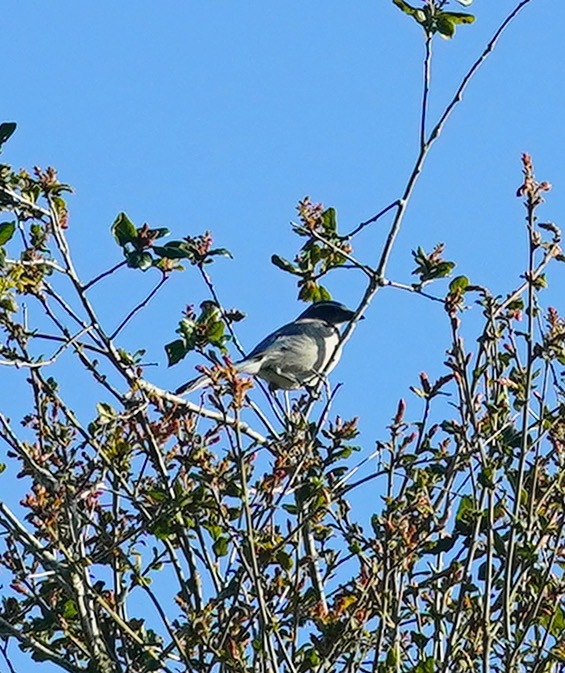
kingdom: Animalia
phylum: Chordata
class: Aves
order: Passeriformes
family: Corvidae
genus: Aphelocoma
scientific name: Aphelocoma californica
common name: California scrub-jay
